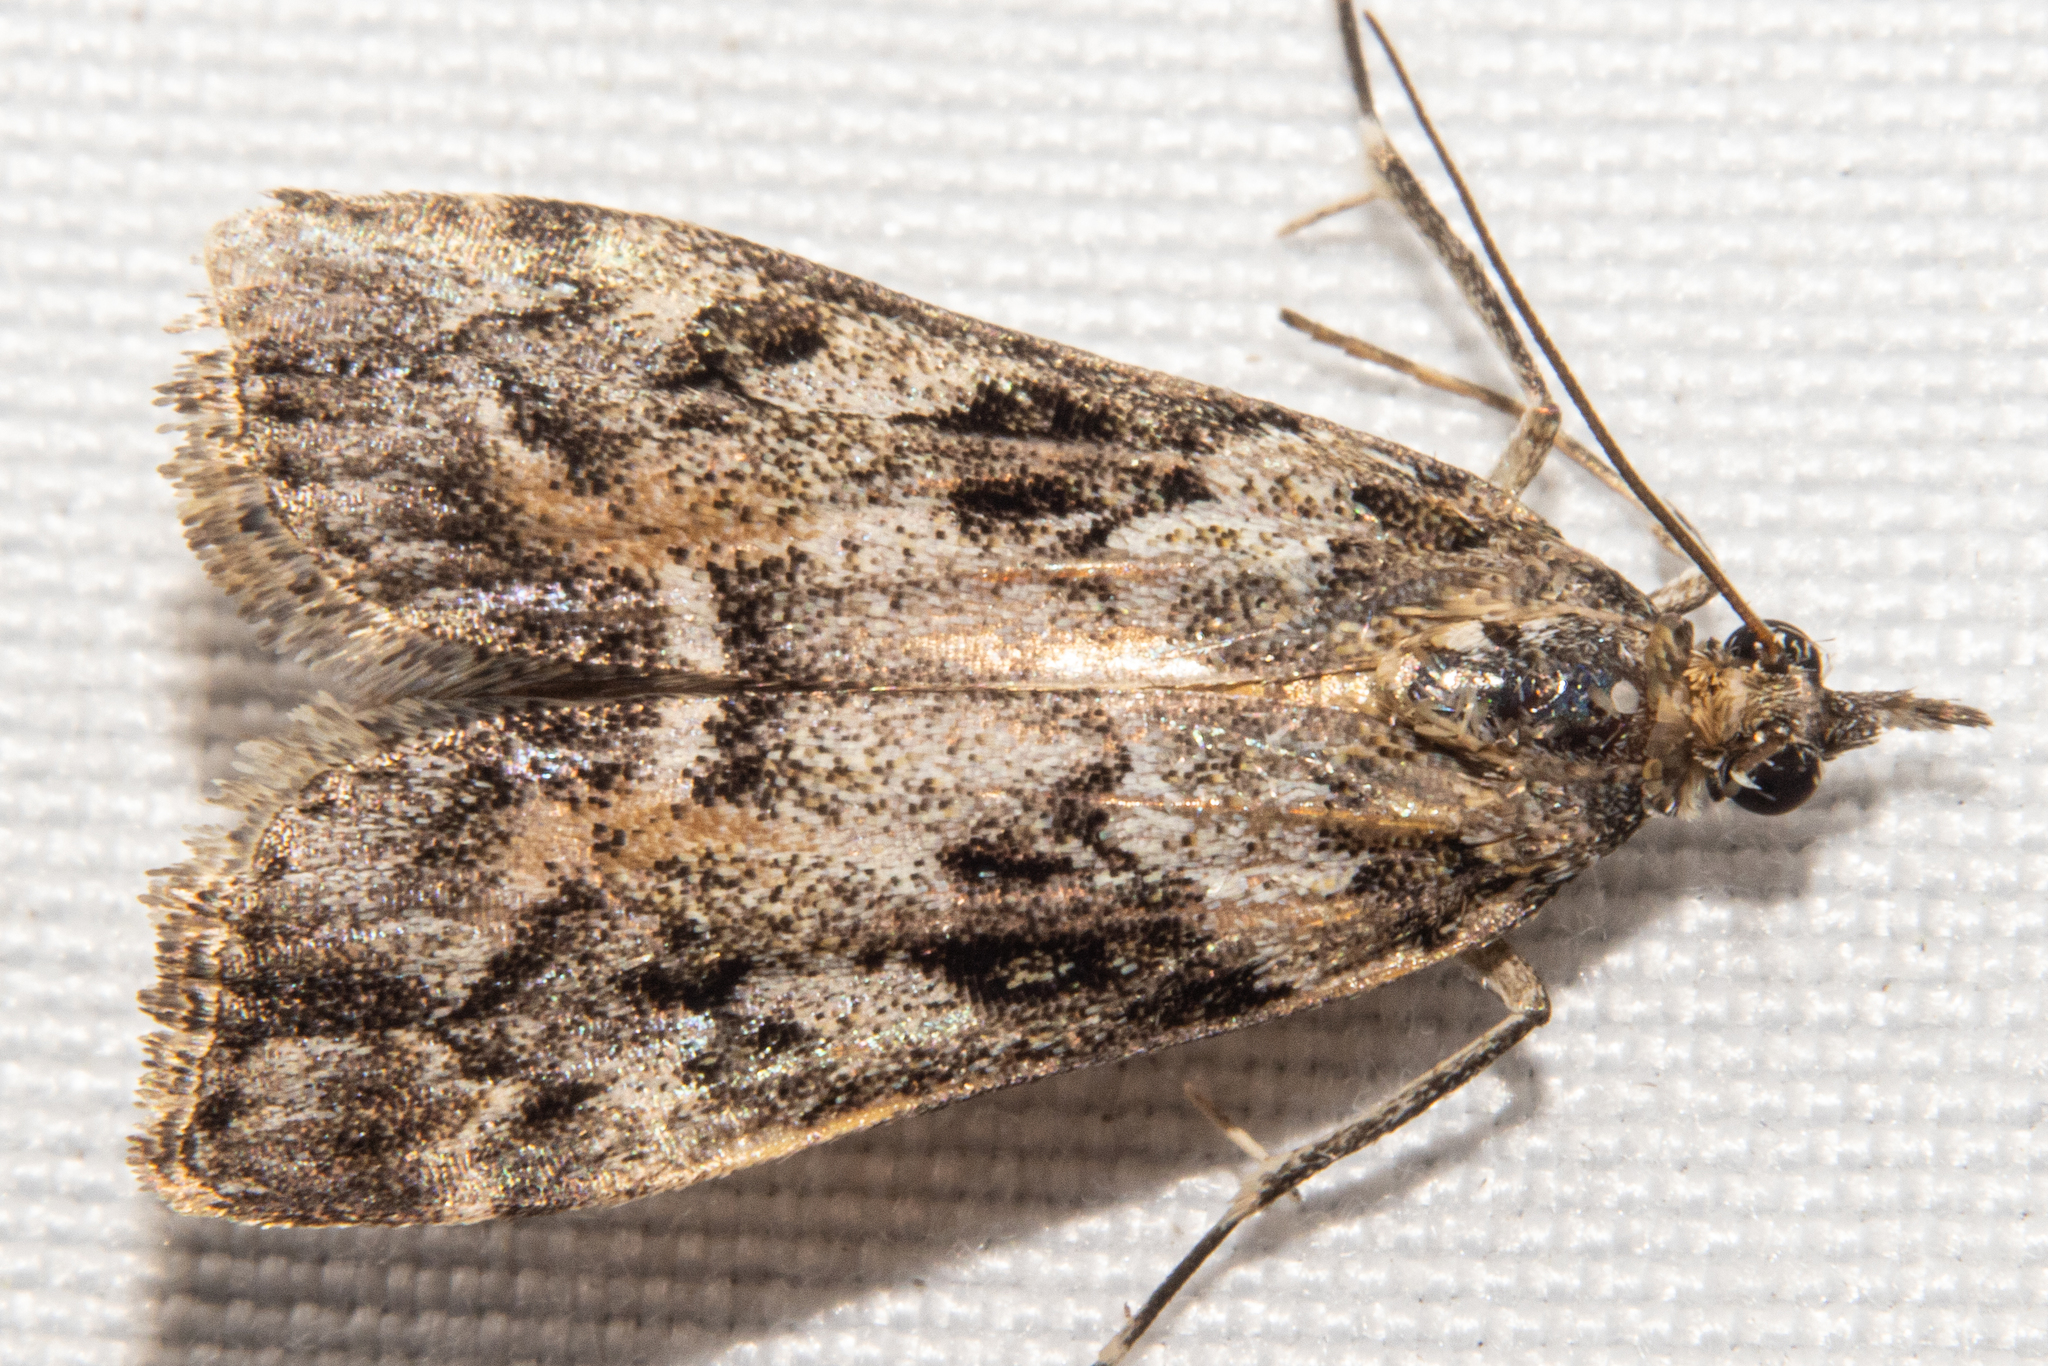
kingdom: Animalia
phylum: Arthropoda
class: Insecta
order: Lepidoptera
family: Crambidae
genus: Eudonia
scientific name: Eudonia submarginalis
